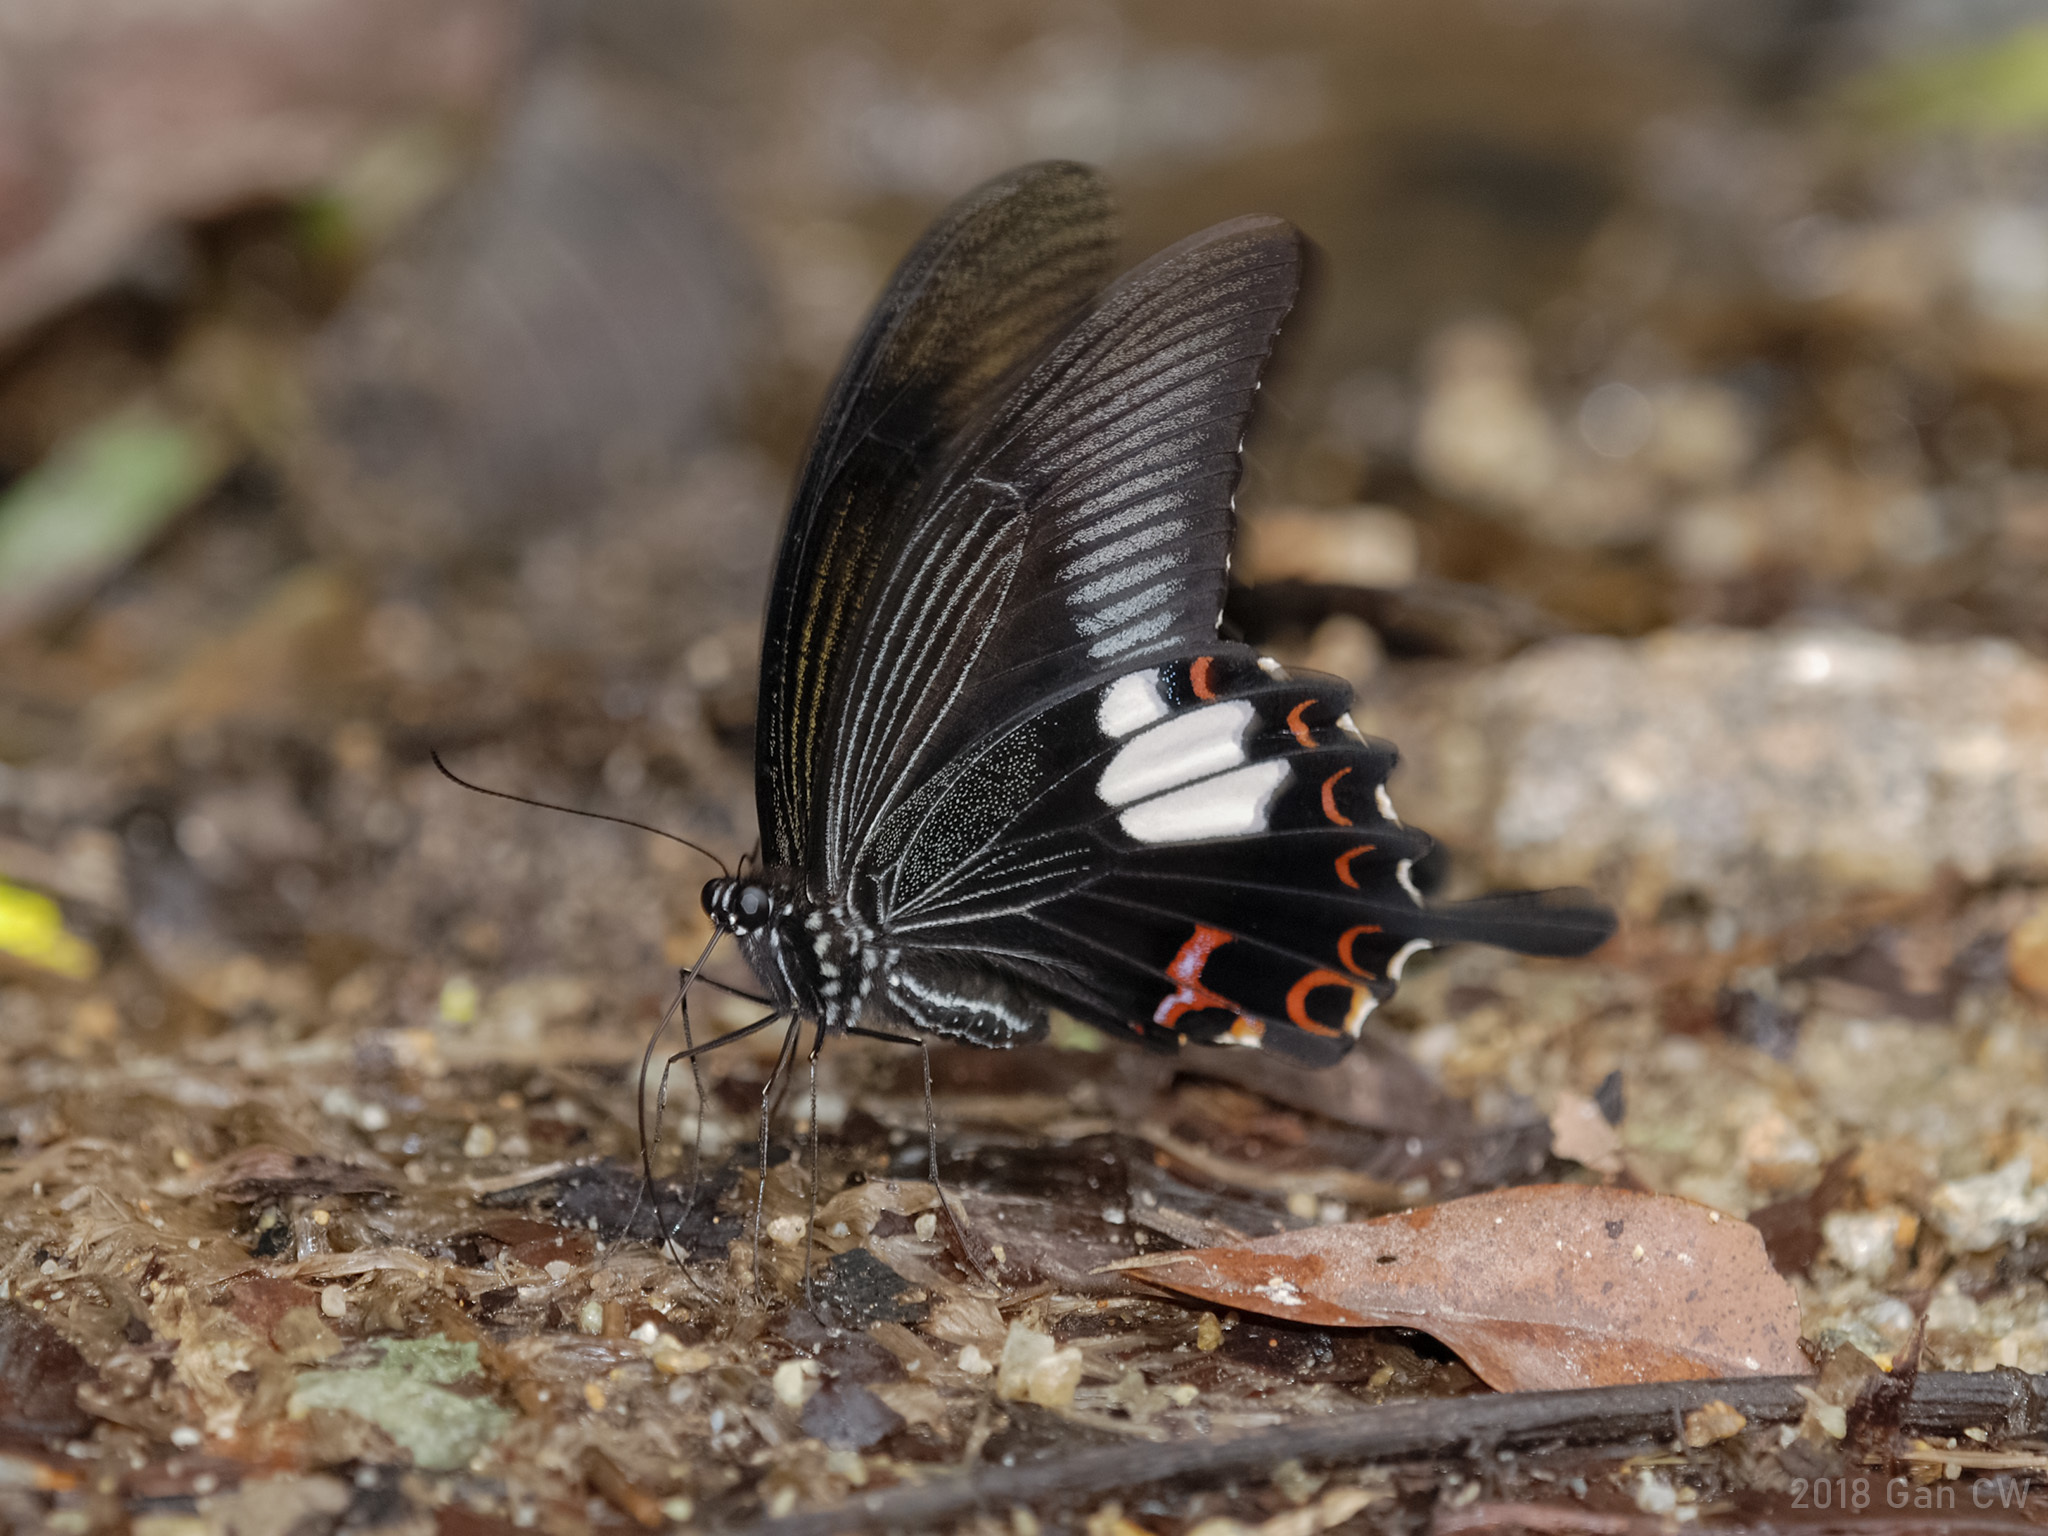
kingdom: Animalia
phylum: Arthropoda
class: Insecta
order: Lepidoptera
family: Papilionidae
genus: Papilio
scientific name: Papilio helenus
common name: Red helen
